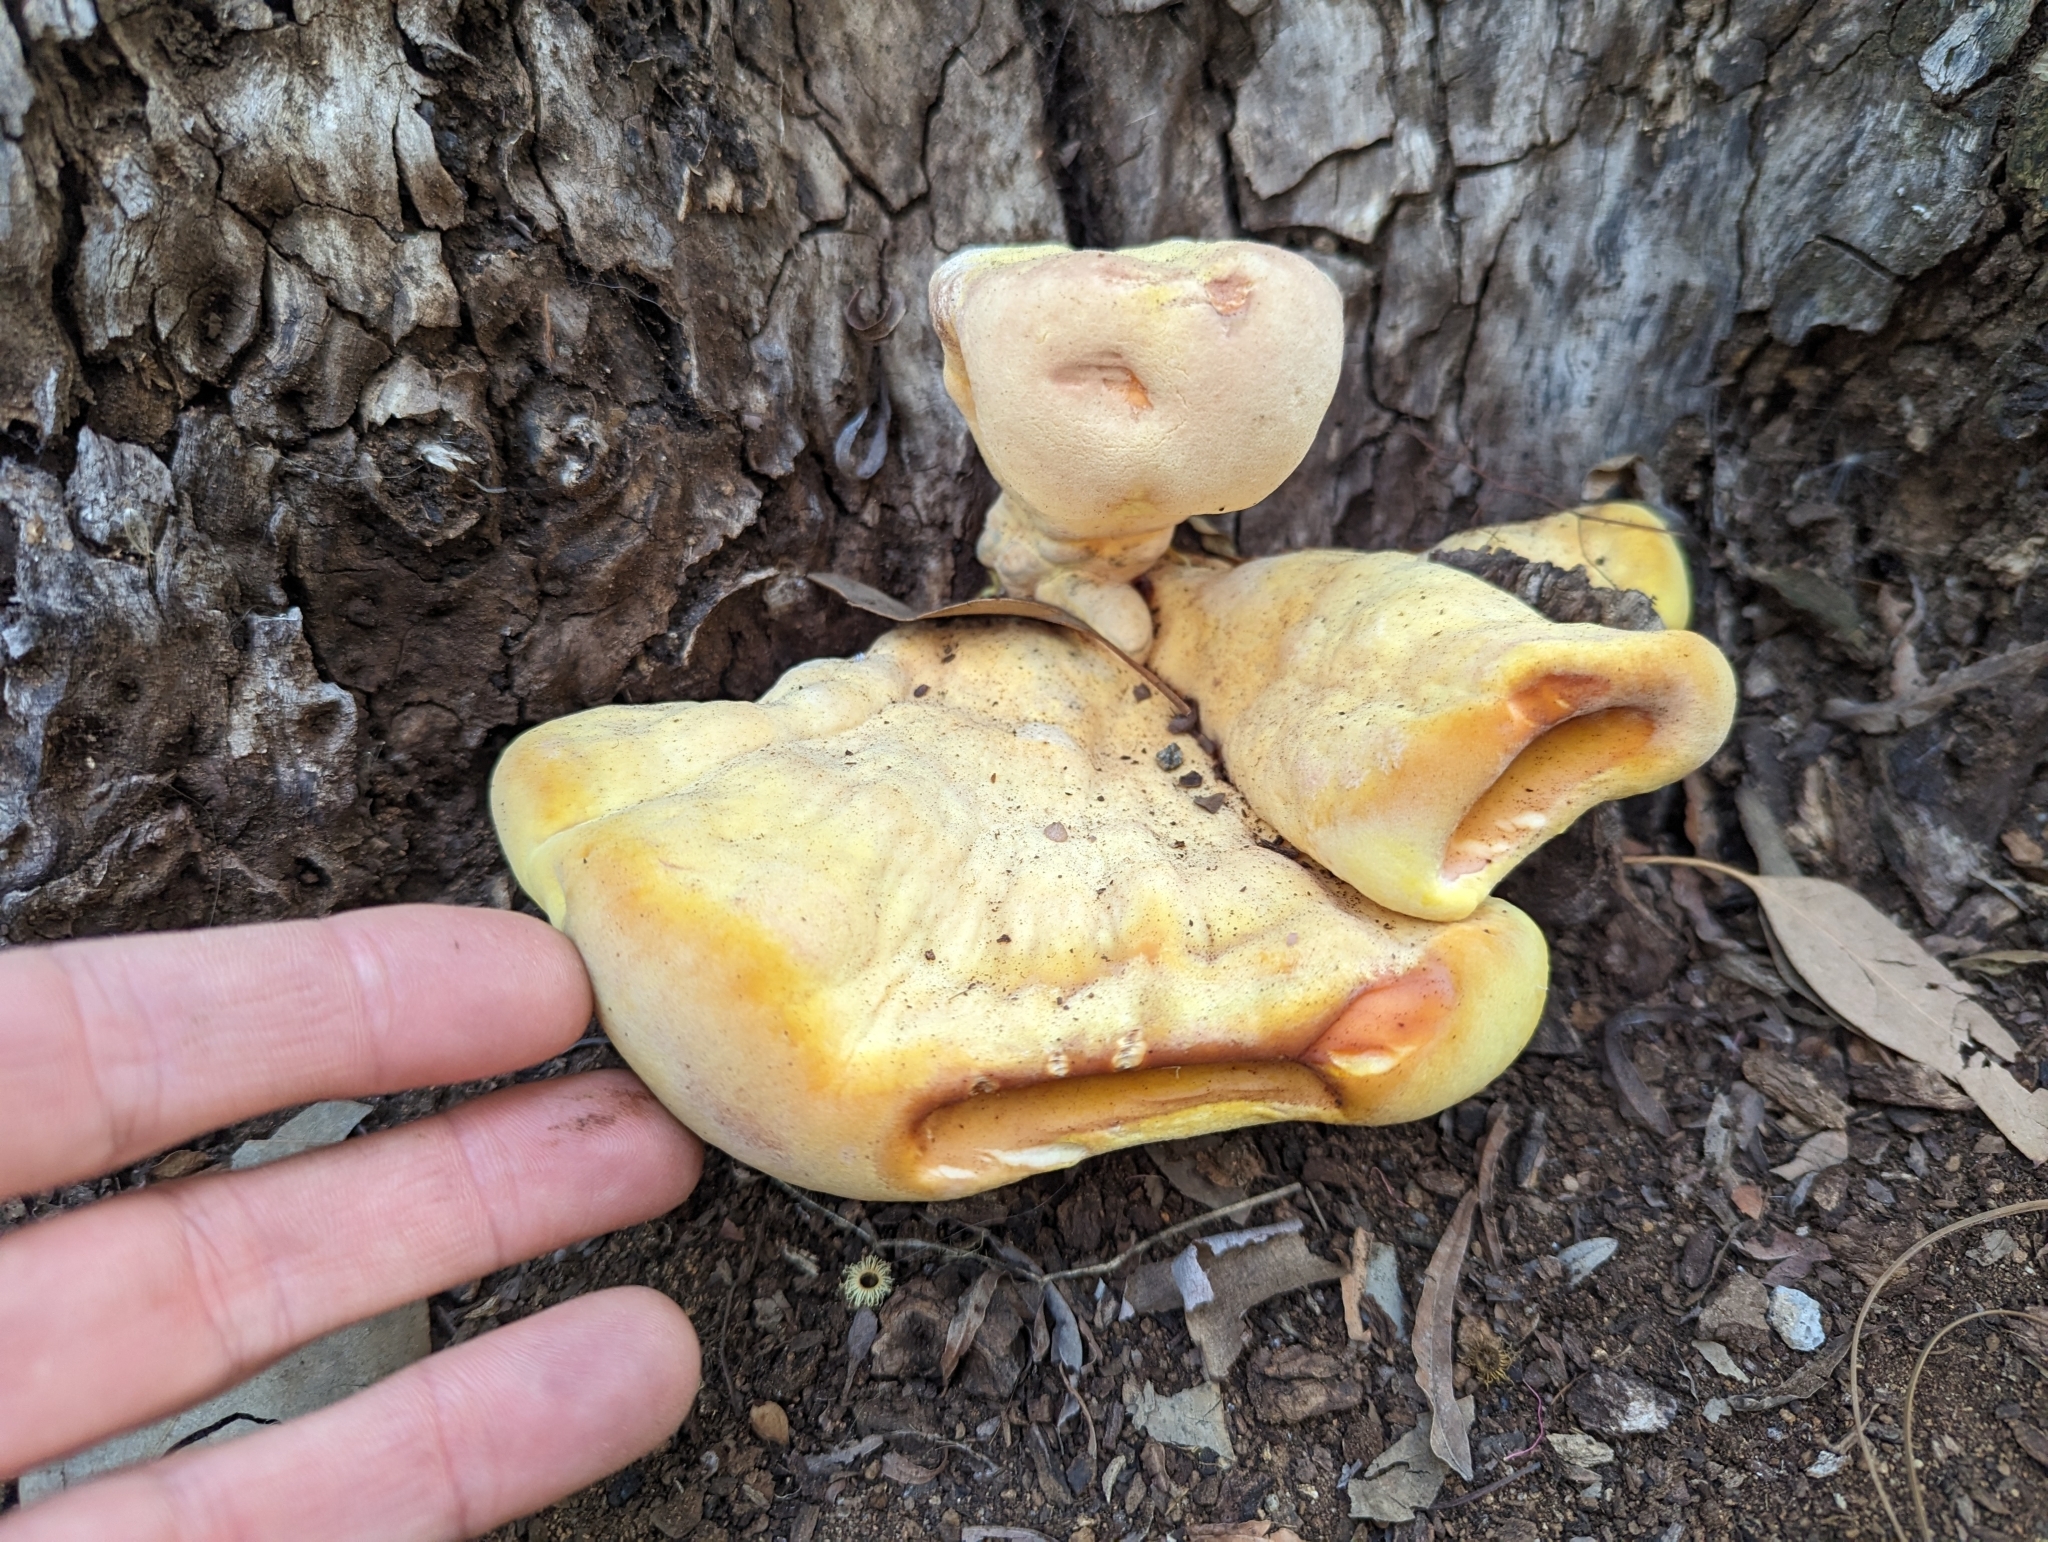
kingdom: Fungi
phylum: Basidiomycota
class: Agaricomycetes
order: Polyporales
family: Laetiporaceae
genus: Laetiporus
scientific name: Laetiporus gilbertsonii
